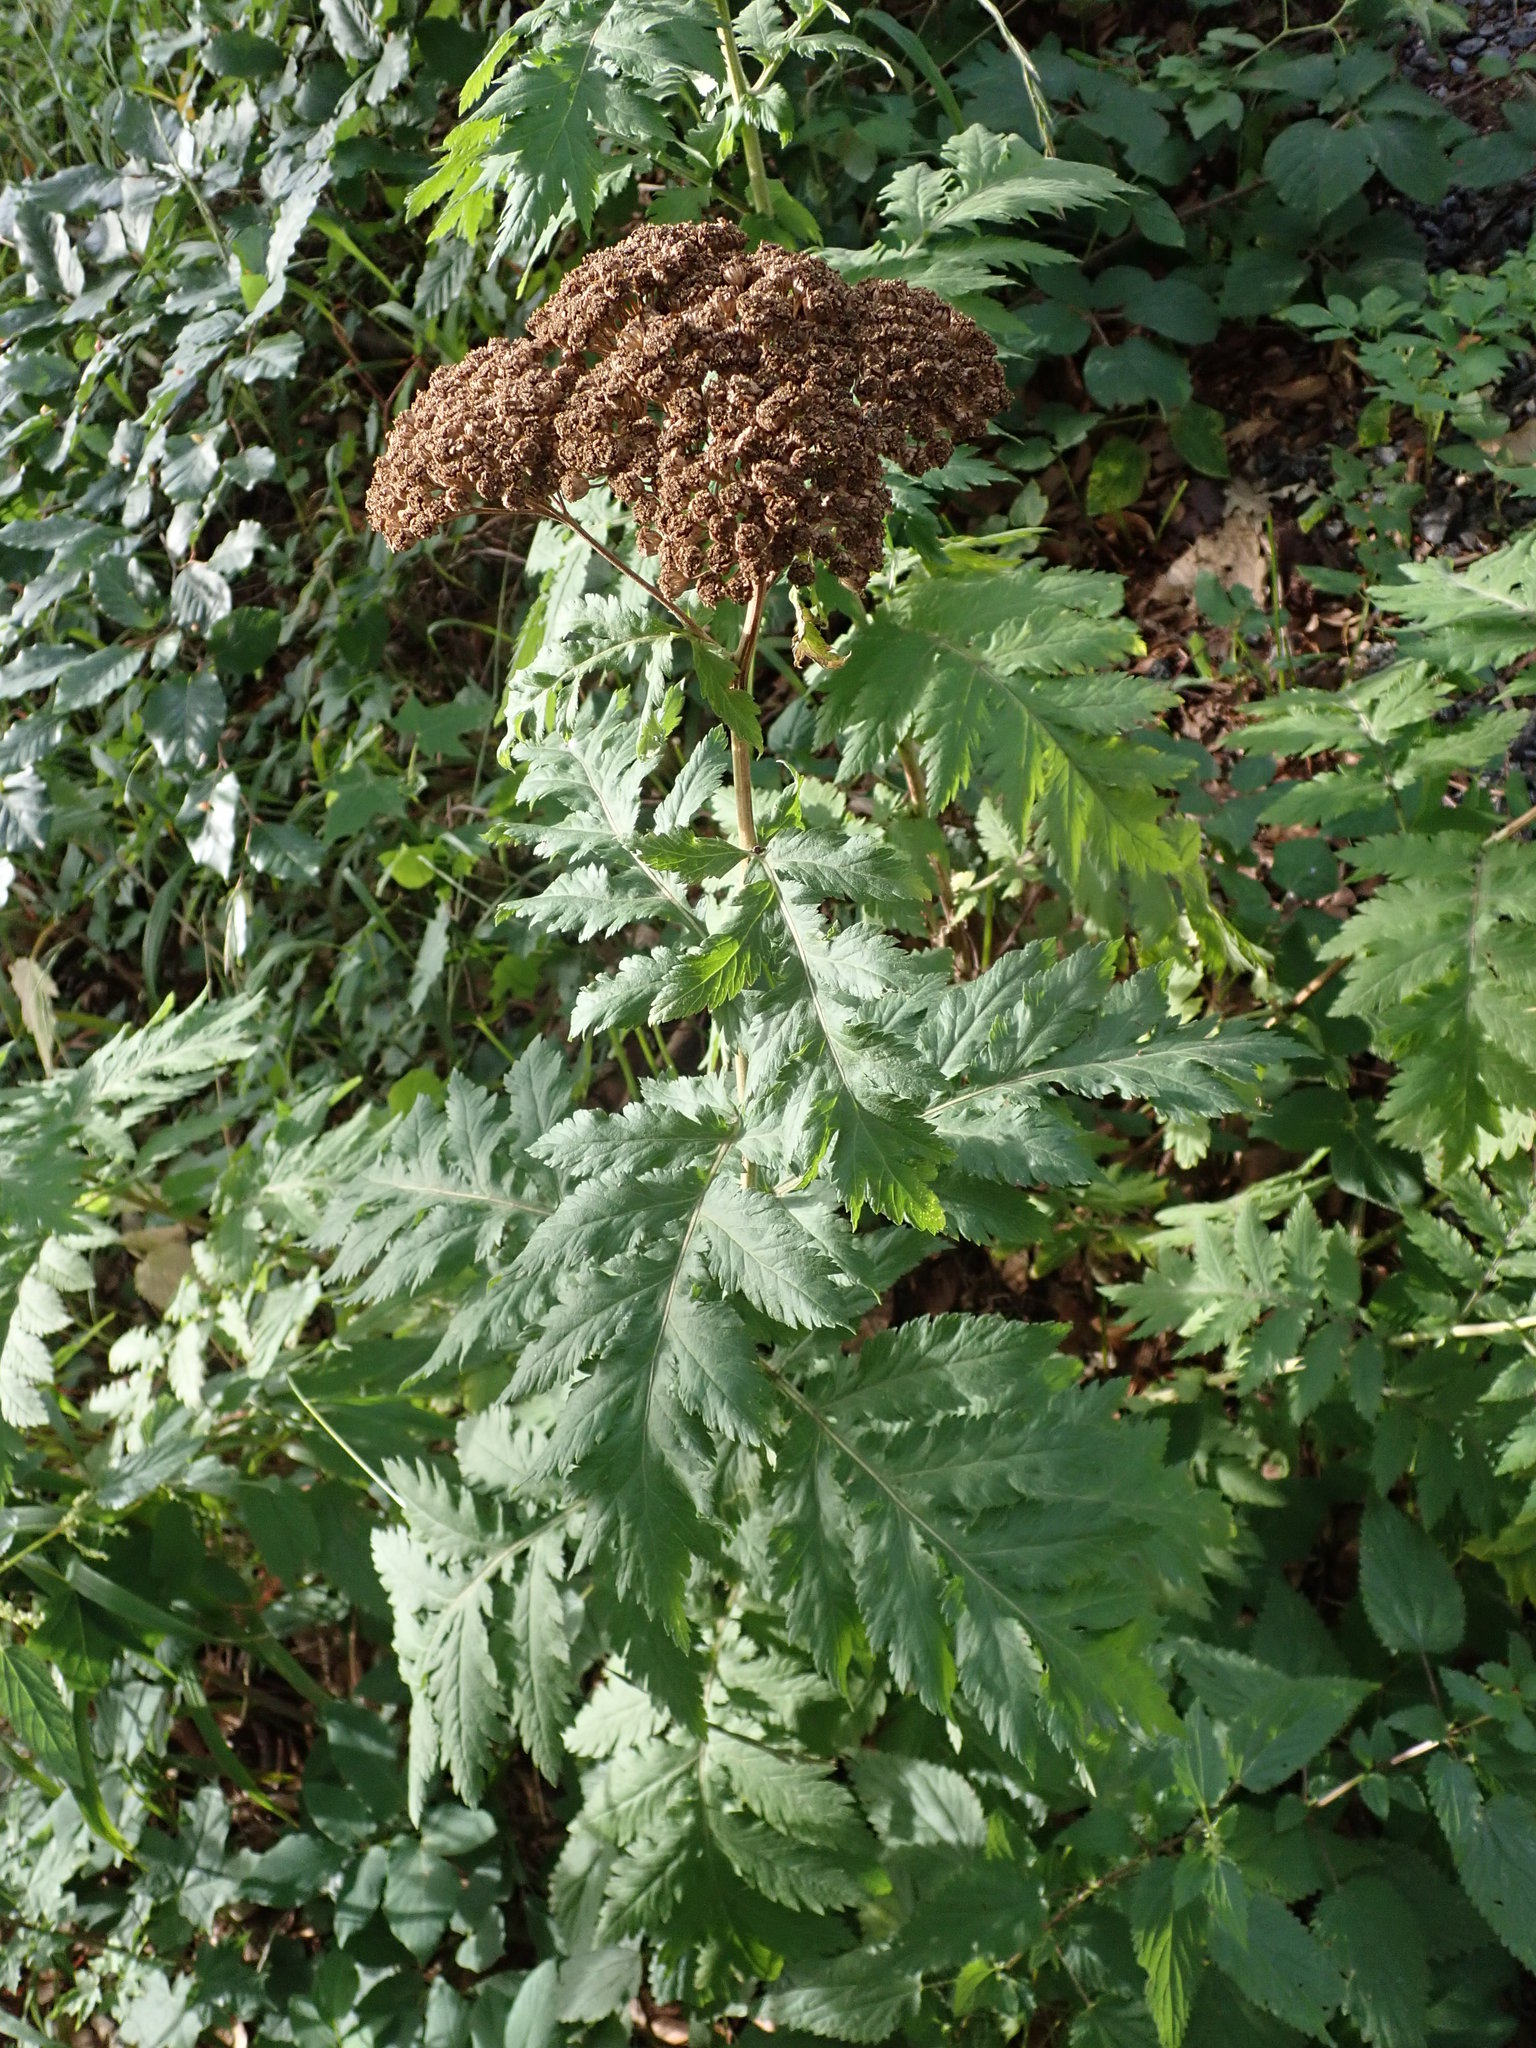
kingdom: Plantae
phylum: Tracheophyta
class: Magnoliopsida
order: Asterales
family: Asteraceae
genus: Tanacetum
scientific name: Tanacetum macrophyllum
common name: Rayed tansy
